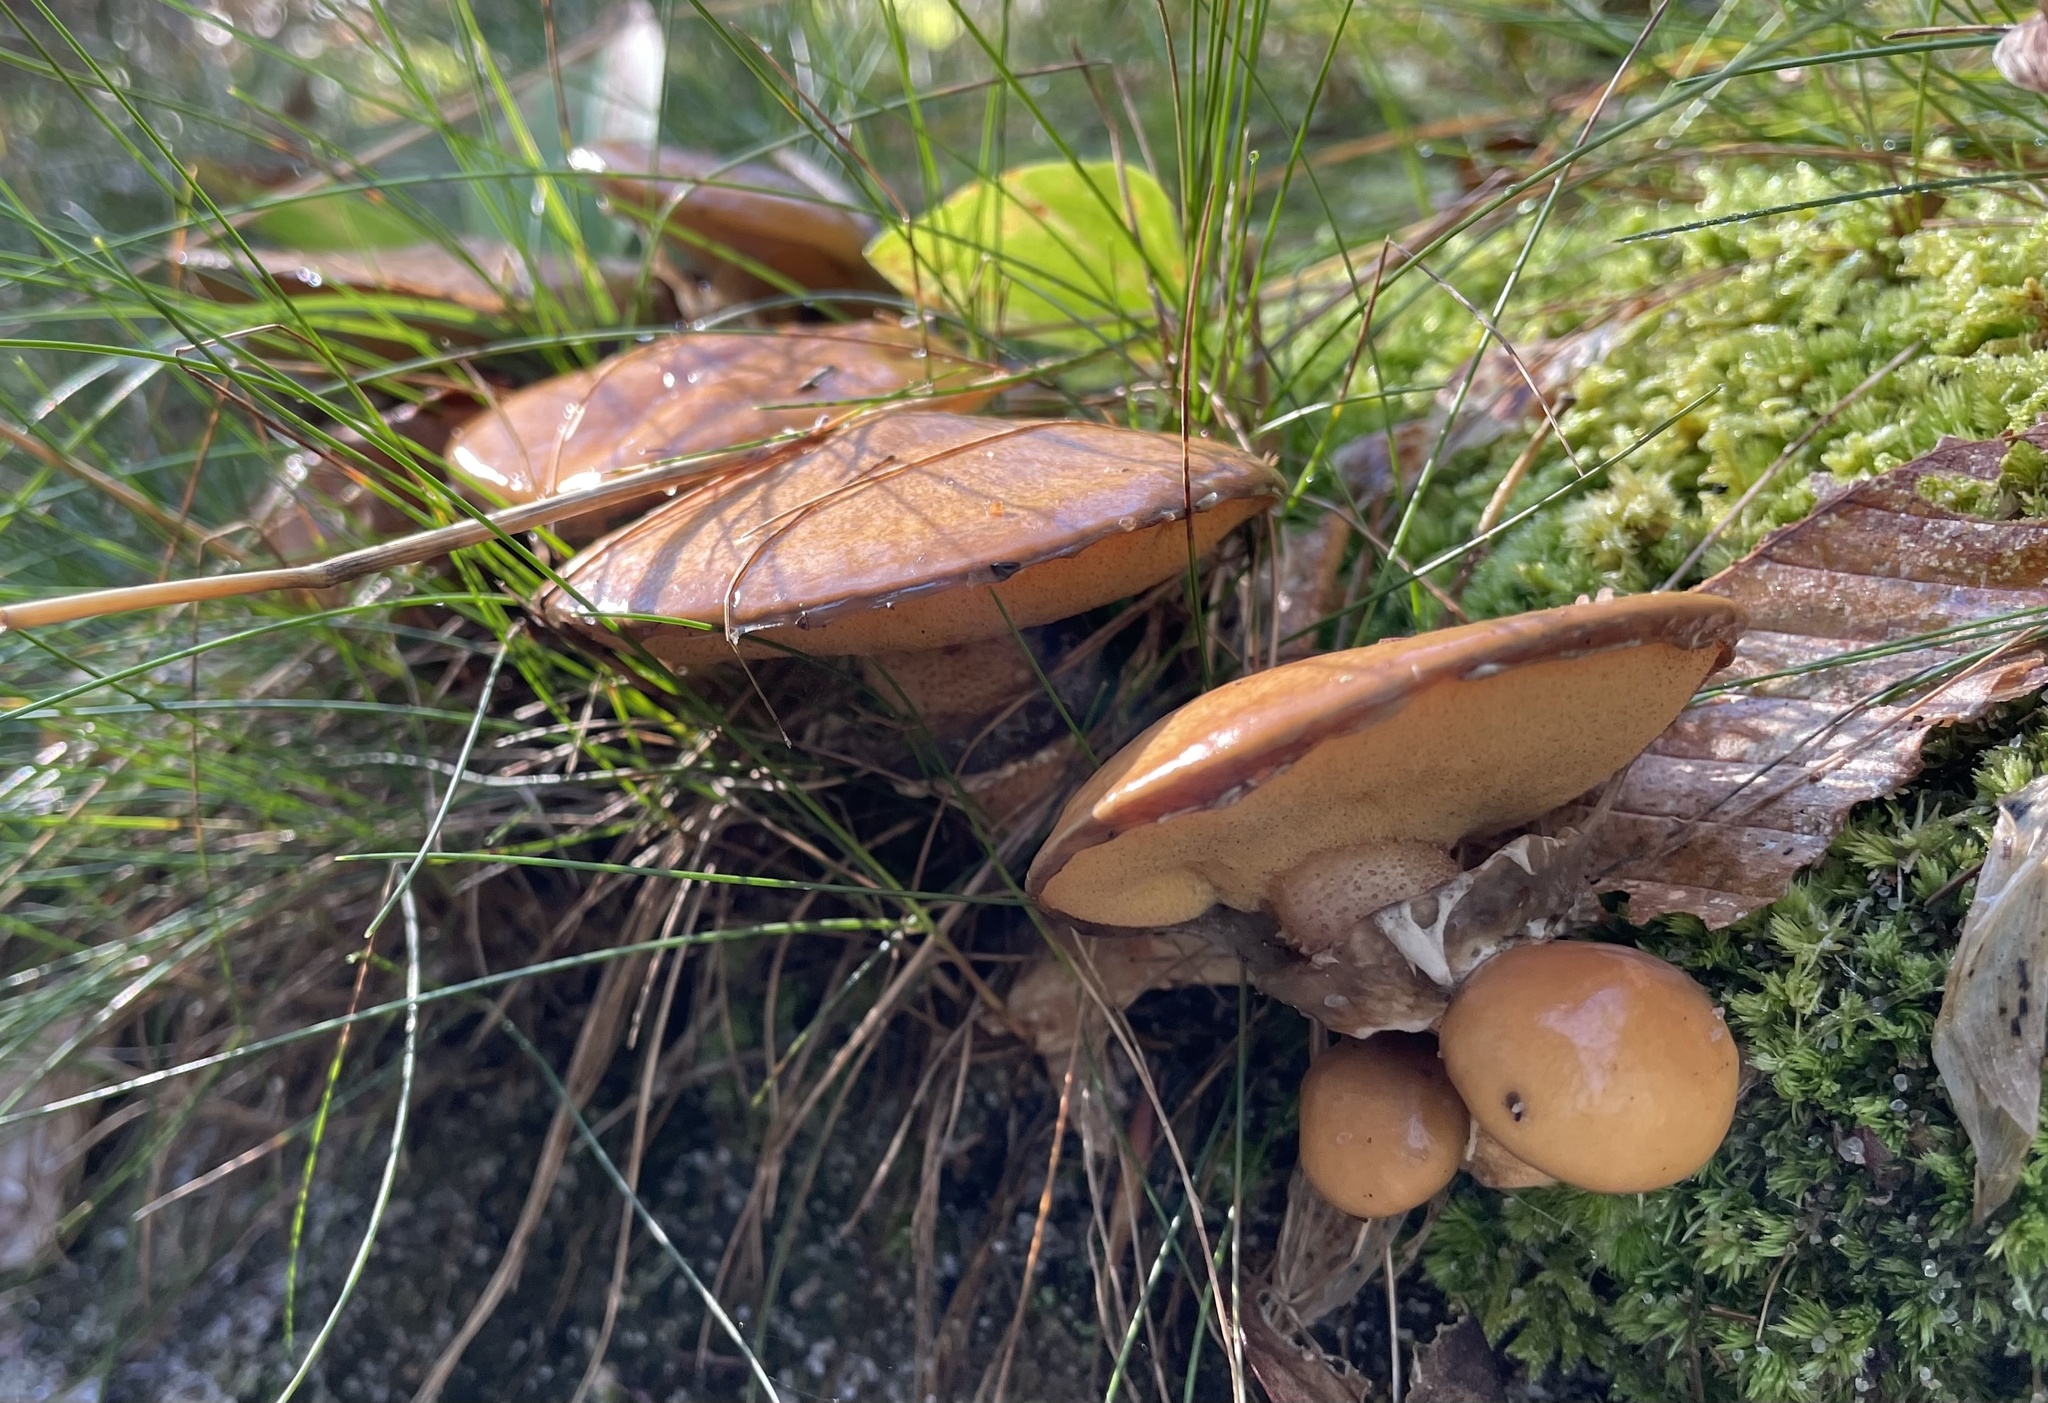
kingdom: Fungi
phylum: Basidiomycota
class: Agaricomycetes
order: Boletales
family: Suillaceae
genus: Suillus
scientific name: Suillus salmonicolor
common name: Slippery jill
